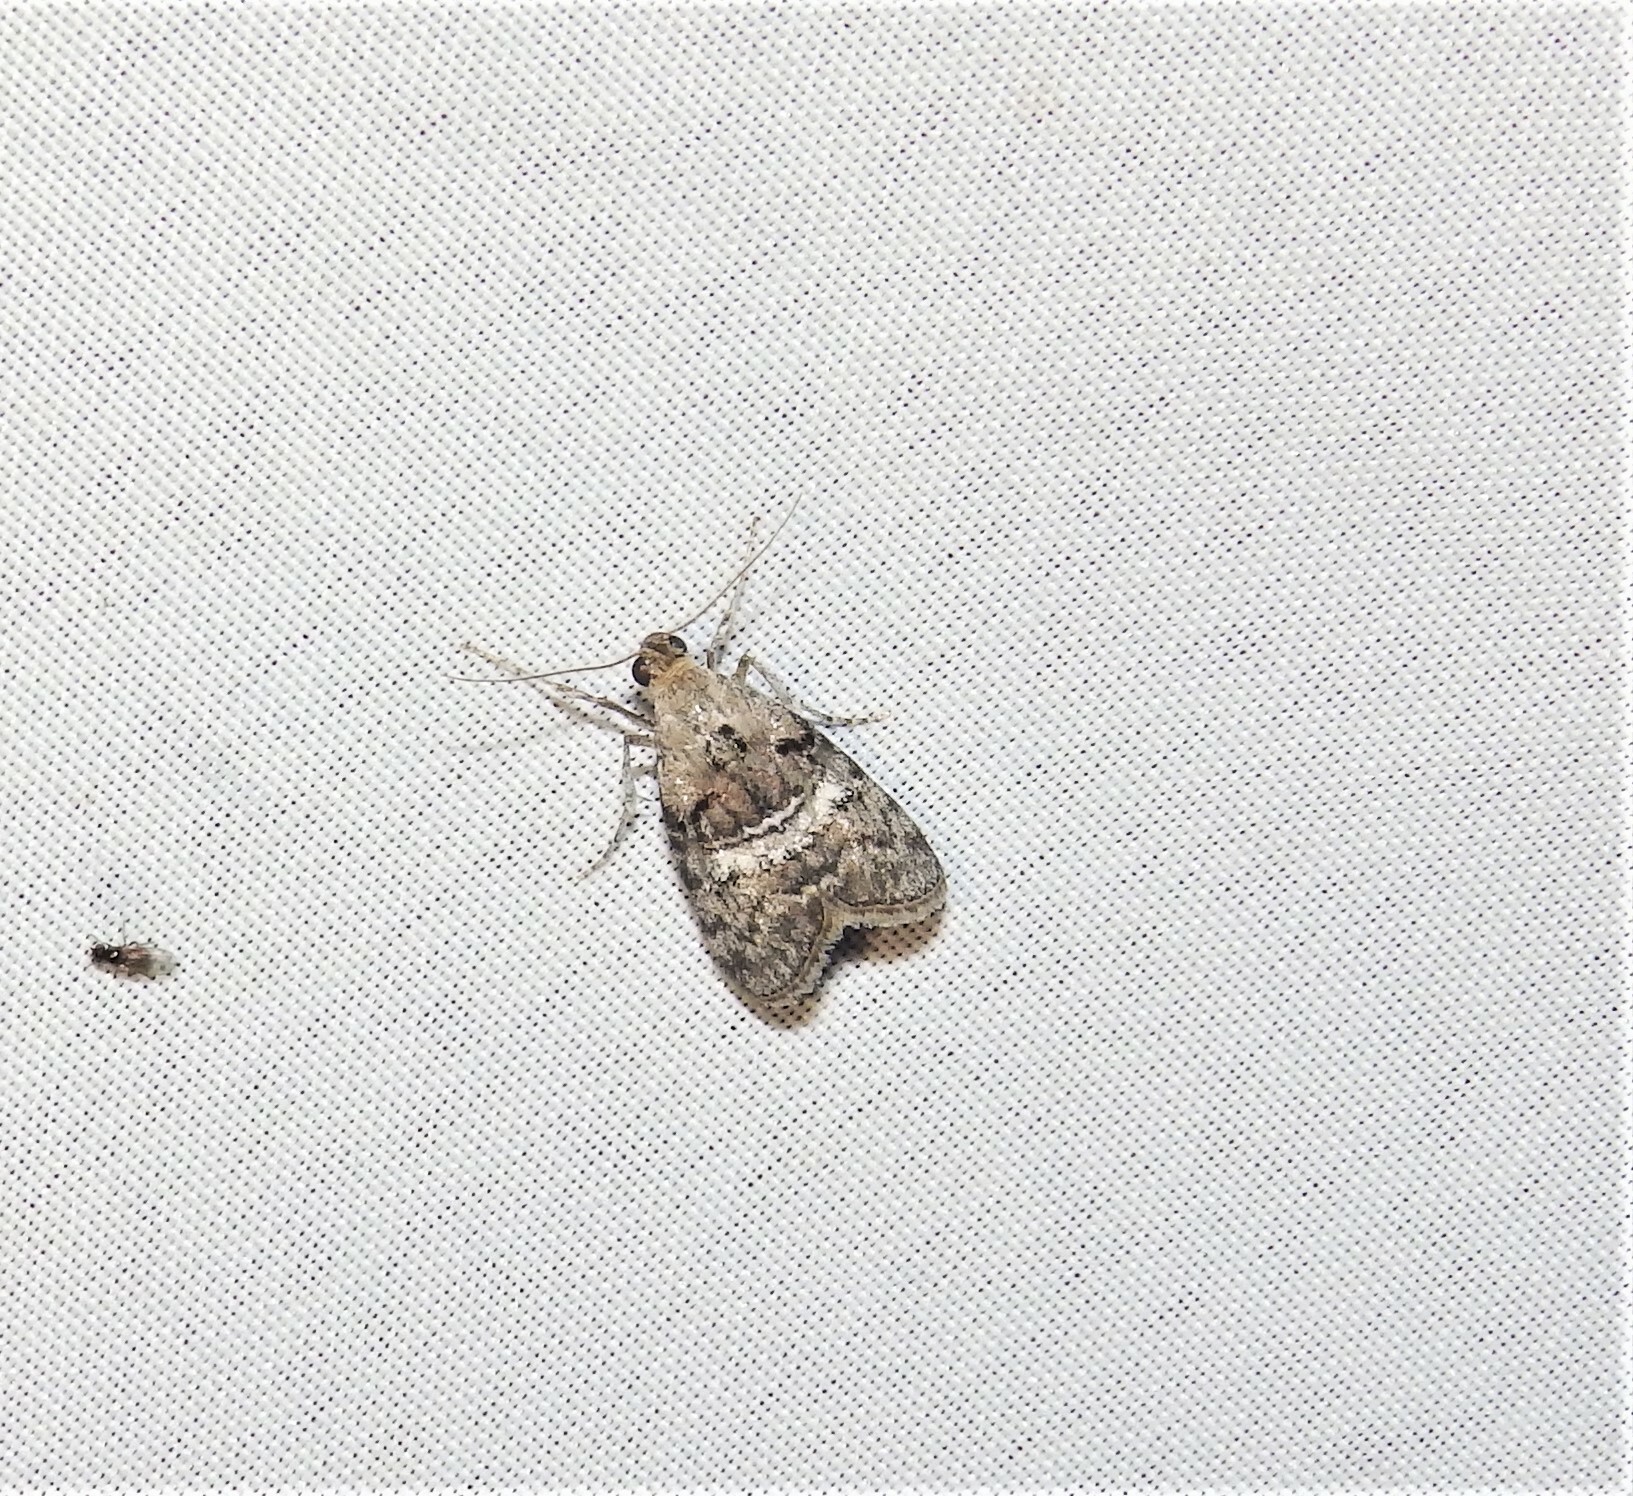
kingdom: Animalia
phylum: Arthropoda
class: Insecta
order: Lepidoptera
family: Pyralidae
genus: Pococera
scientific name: Pococera asperatella
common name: Maple webworm moth
